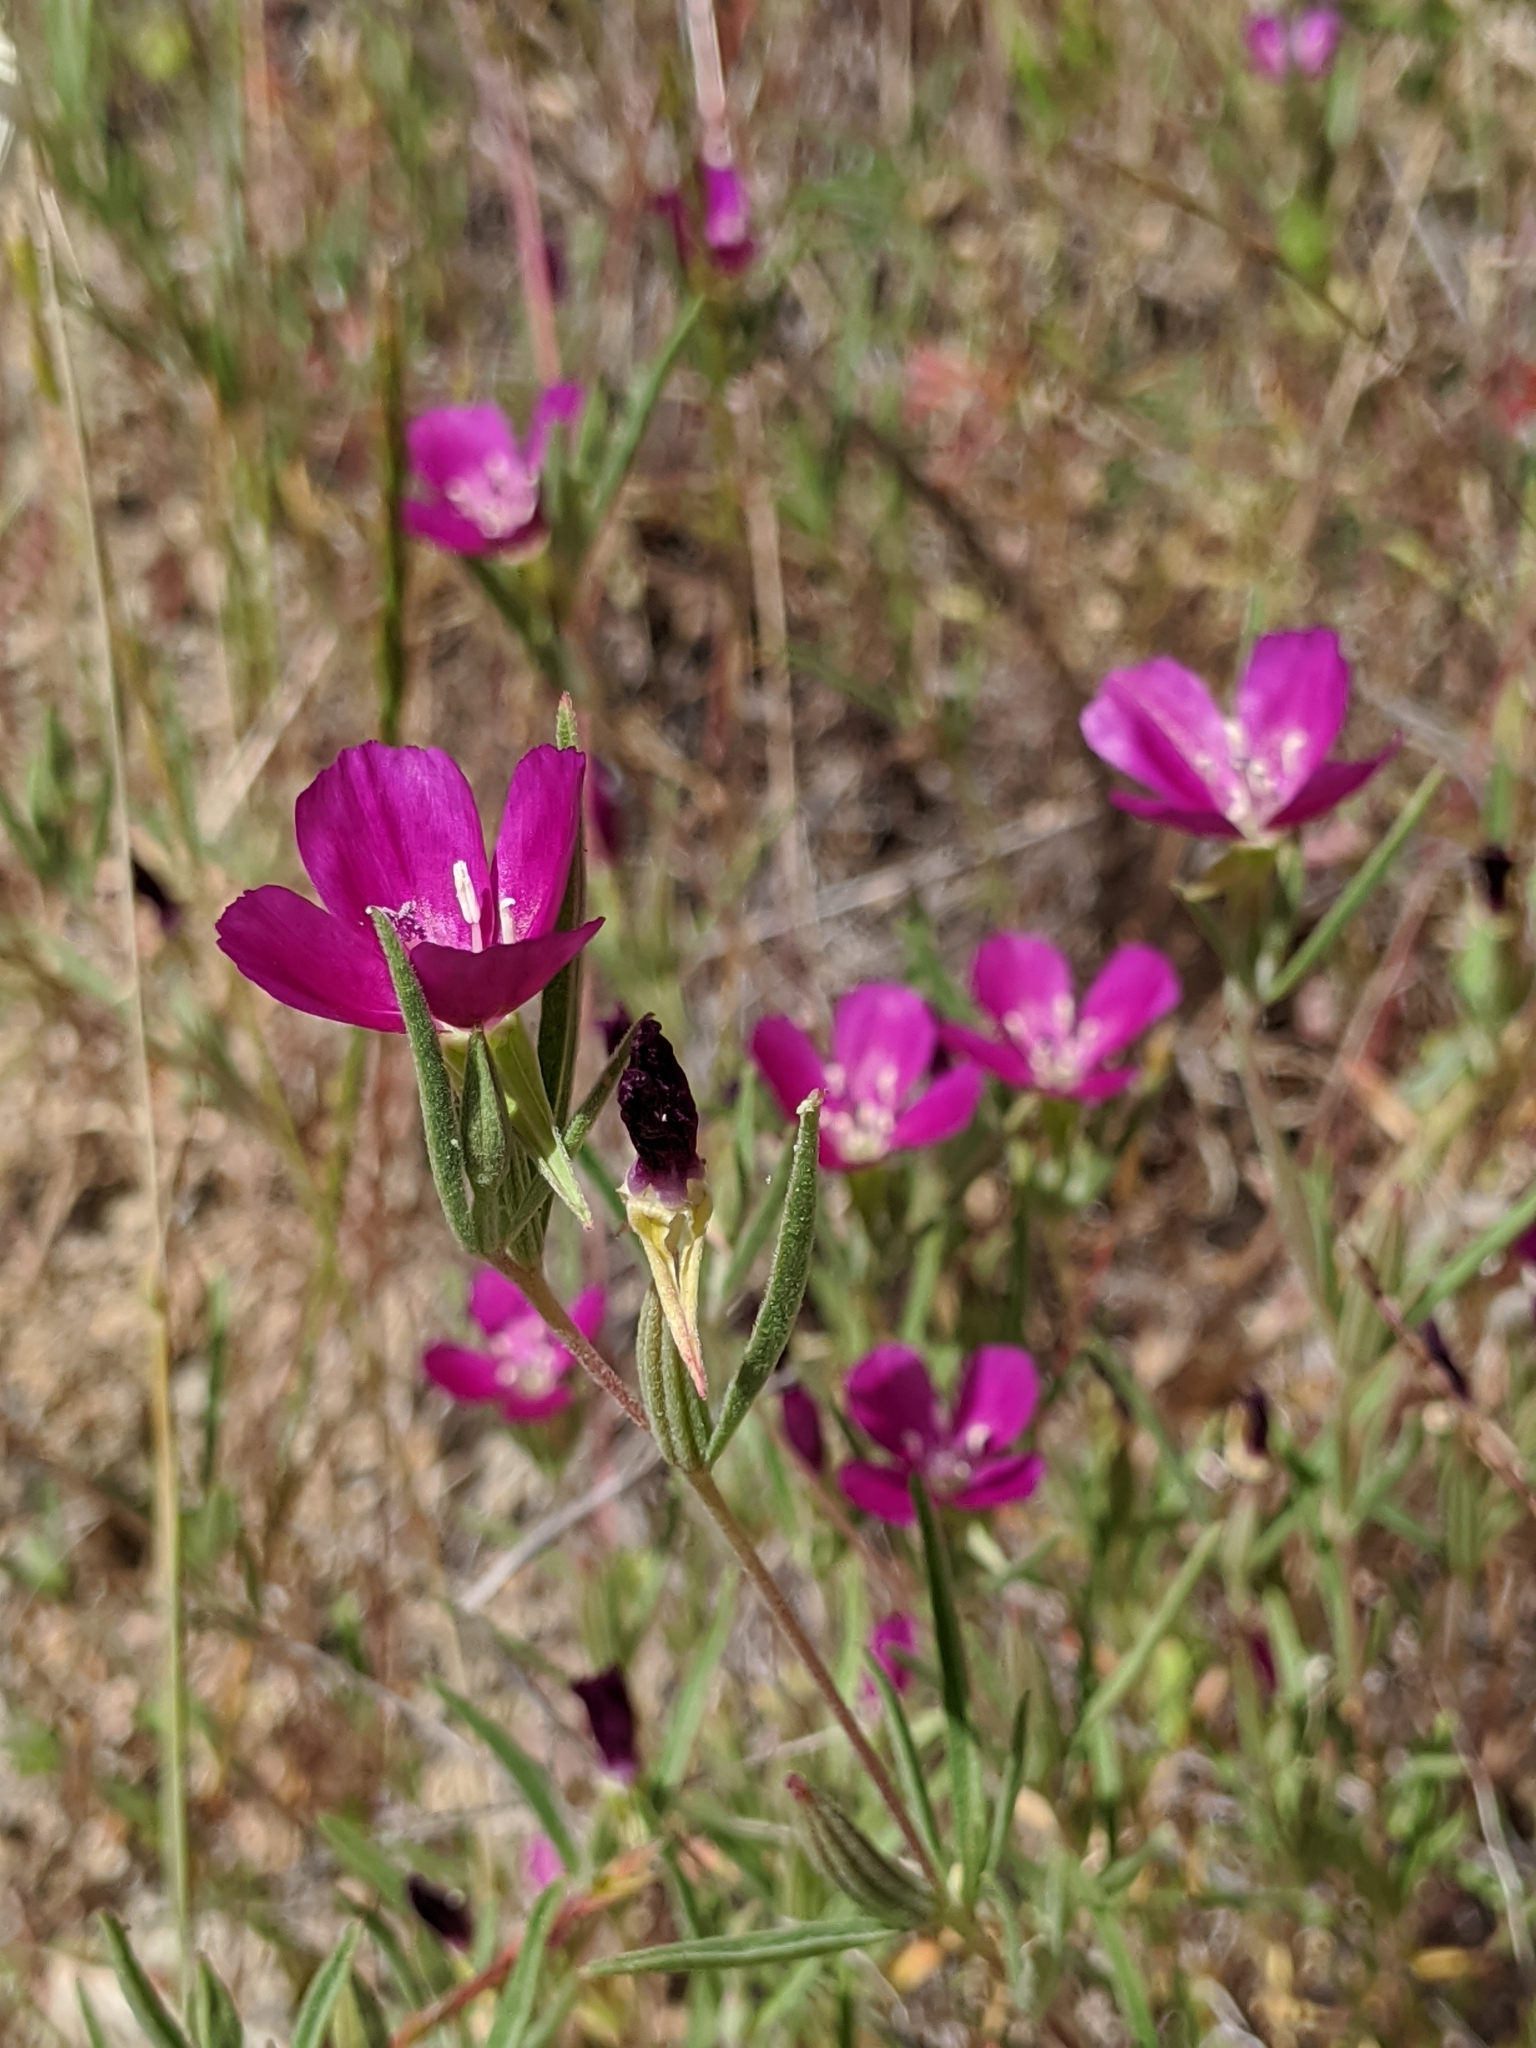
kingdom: Plantae
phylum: Tracheophyta
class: Magnoliopsida
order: Myrtales
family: Onagraceae
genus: Clarkia
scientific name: Clarkia purpurea
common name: Purple clarkia
